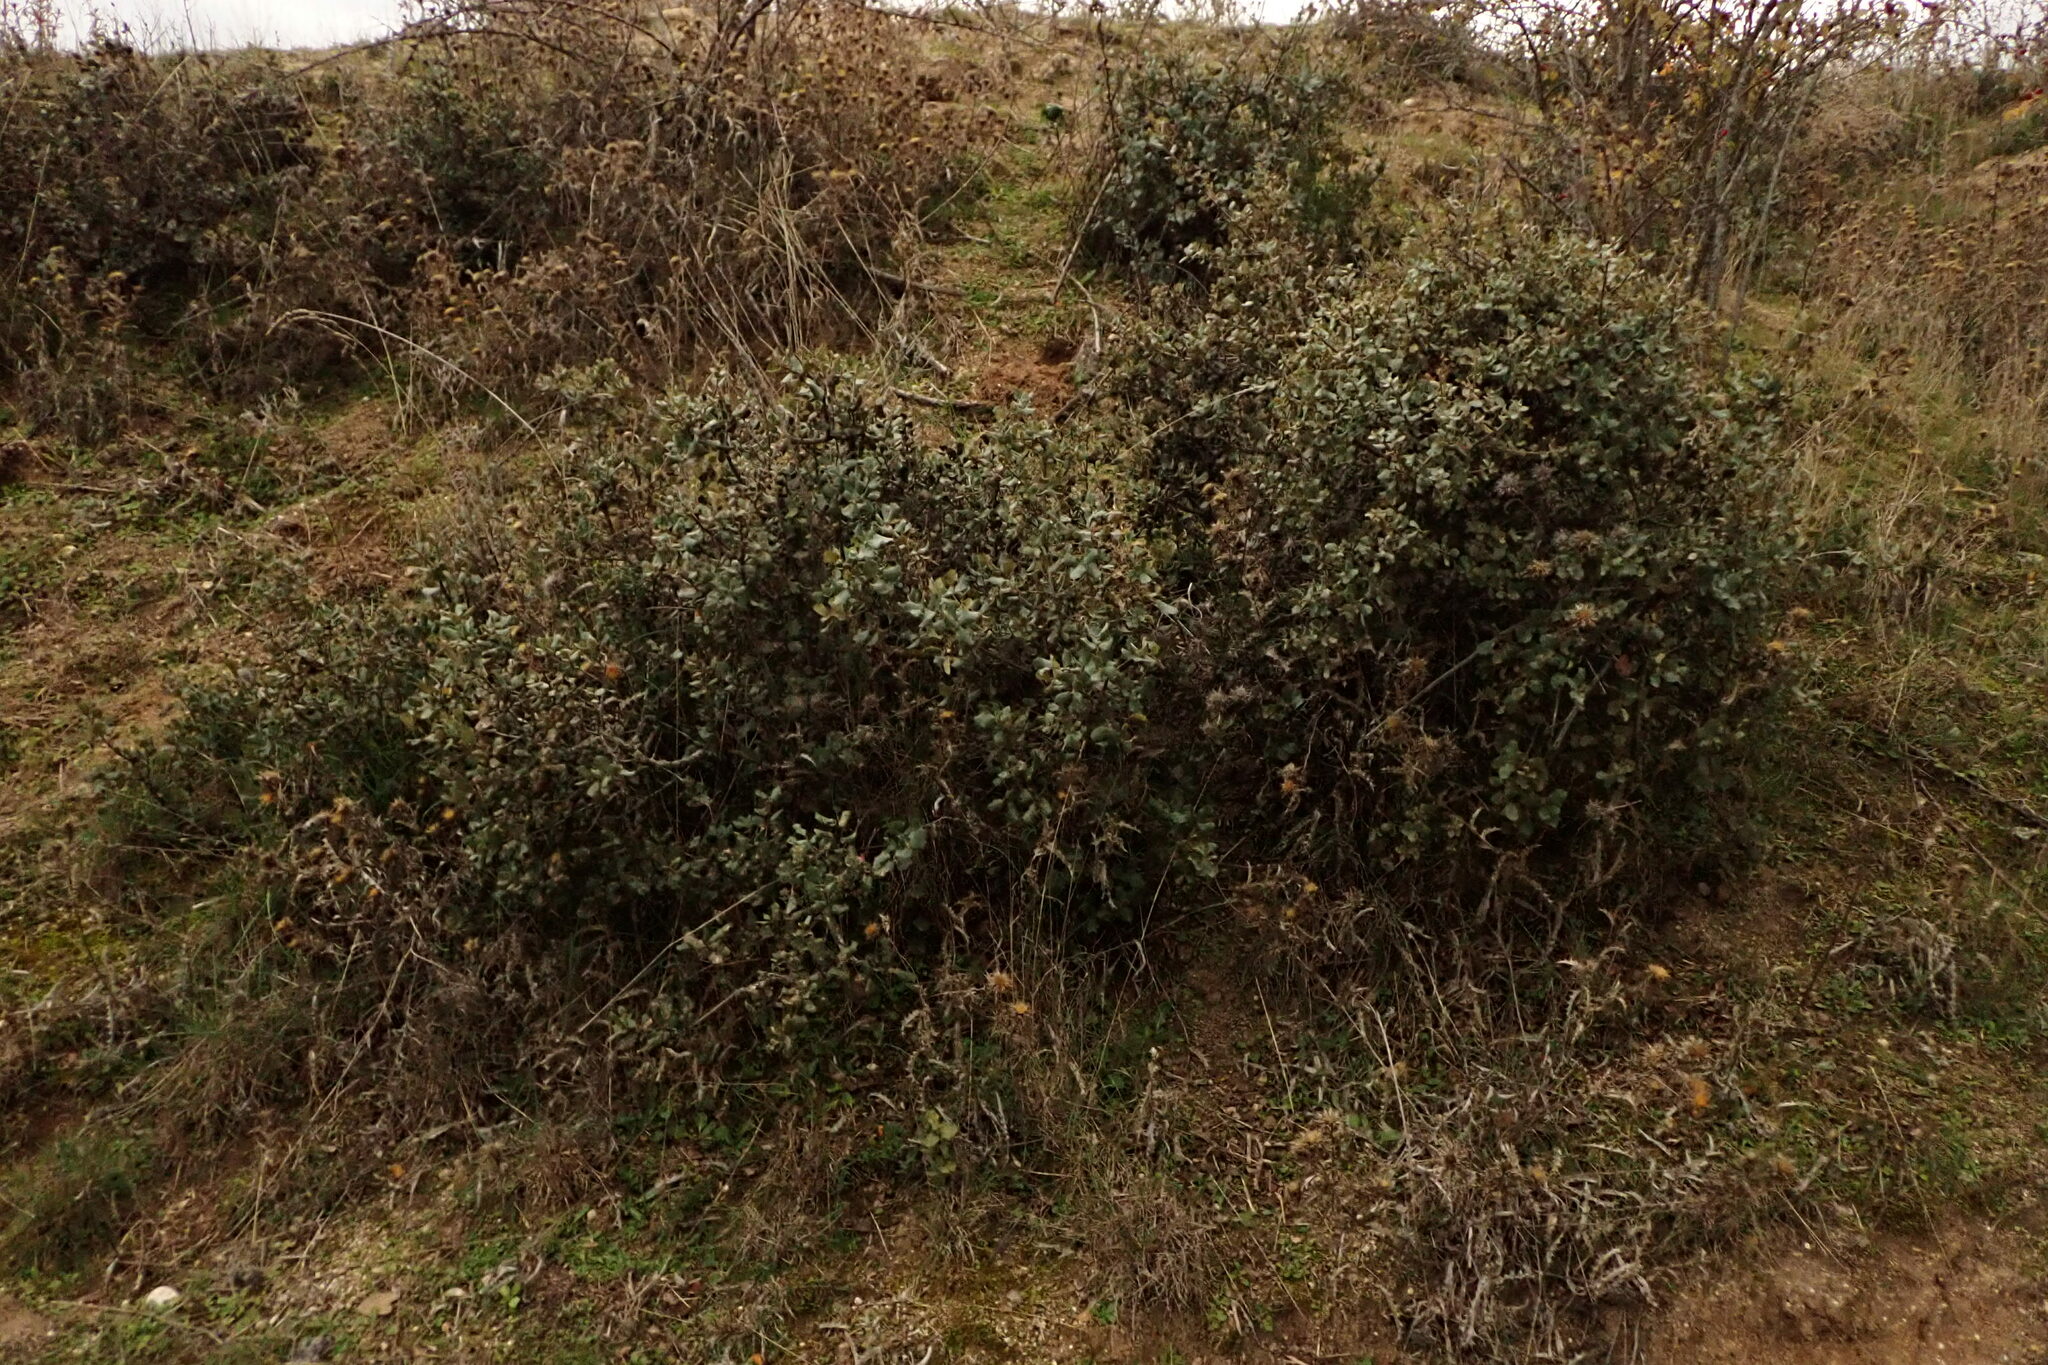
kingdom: Plantae
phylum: Tracheophyta
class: Magnoliopsida
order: Fagales
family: Fagaceae
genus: Quercus
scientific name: Quercus rotundifolia
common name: Holm oak
